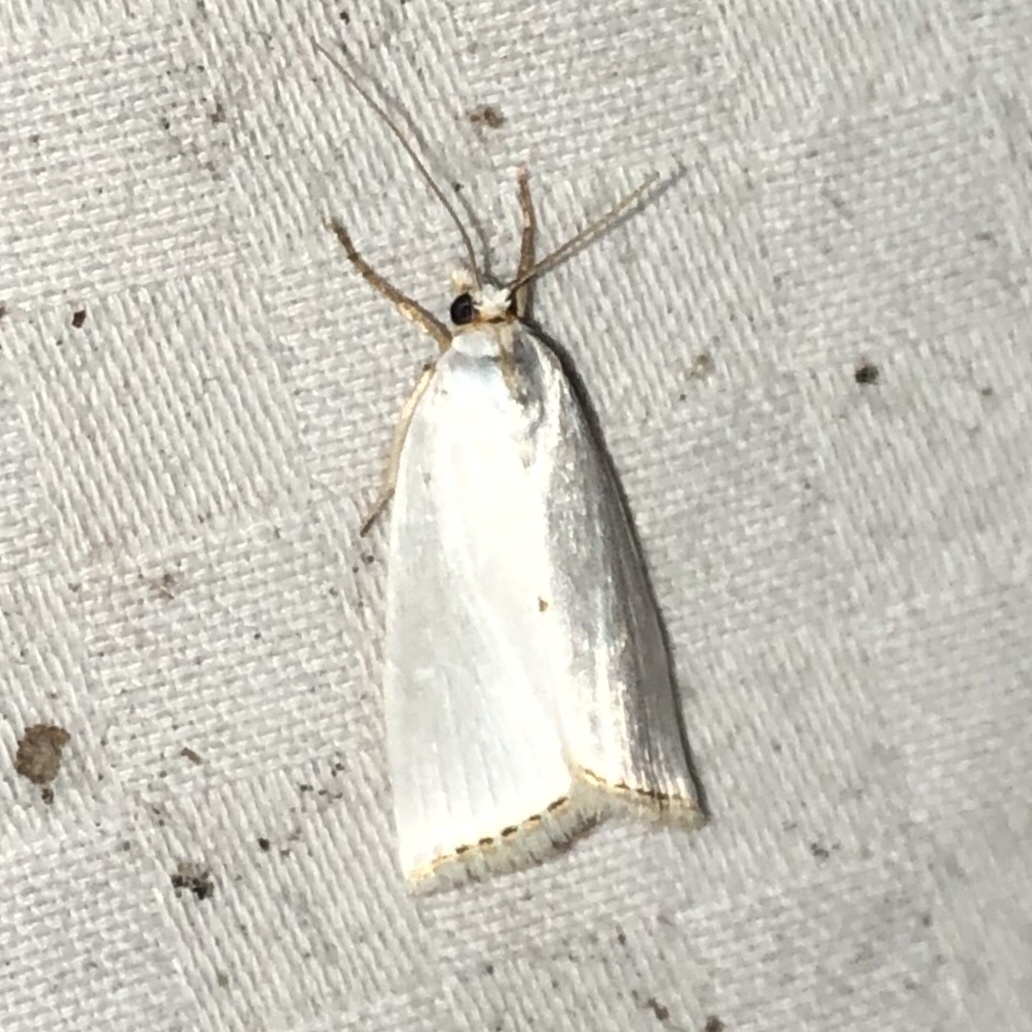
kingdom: Animalia
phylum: Arthropoda
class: Insecta
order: Lepidoptera
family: Crambidae
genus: Argyria
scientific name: Argyria nivalis
